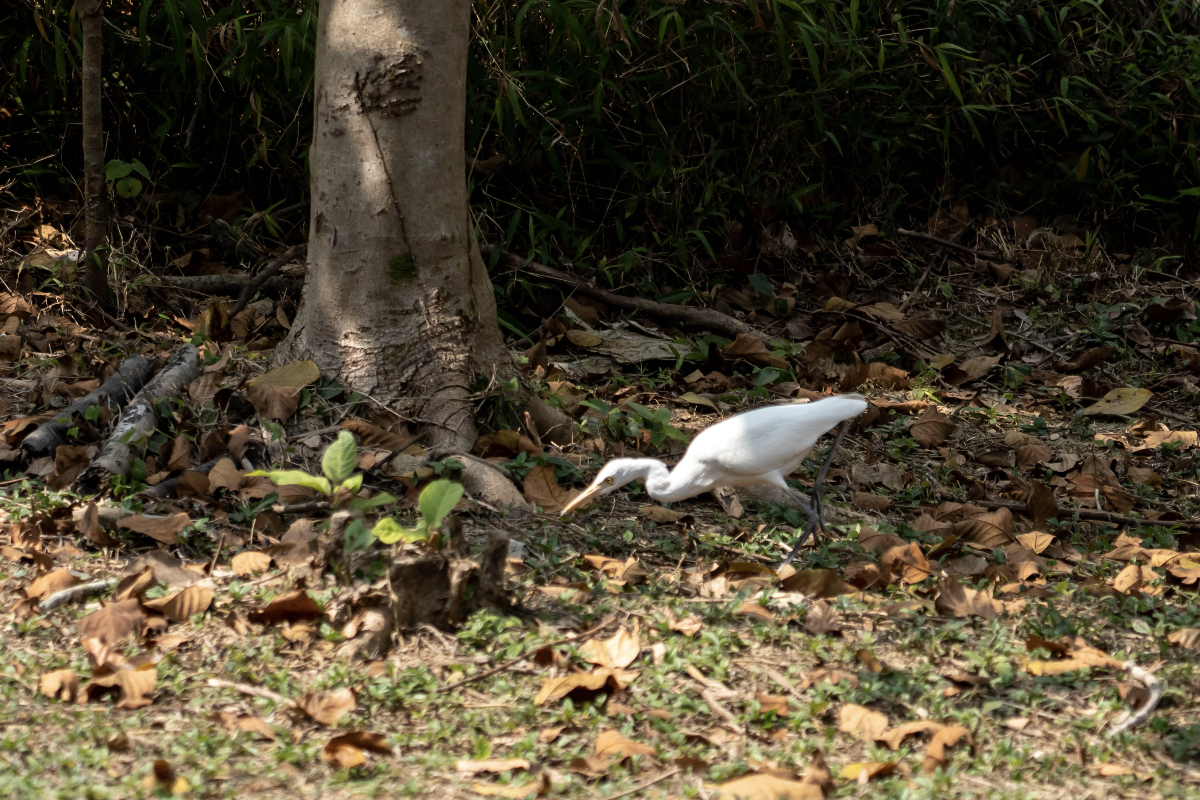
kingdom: Animalia
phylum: Chordata
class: Aves
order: Pelecaniformes
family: Ardeidae
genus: Bubulcus
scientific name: Bubulcus coromandus
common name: Eastern cattle egret
